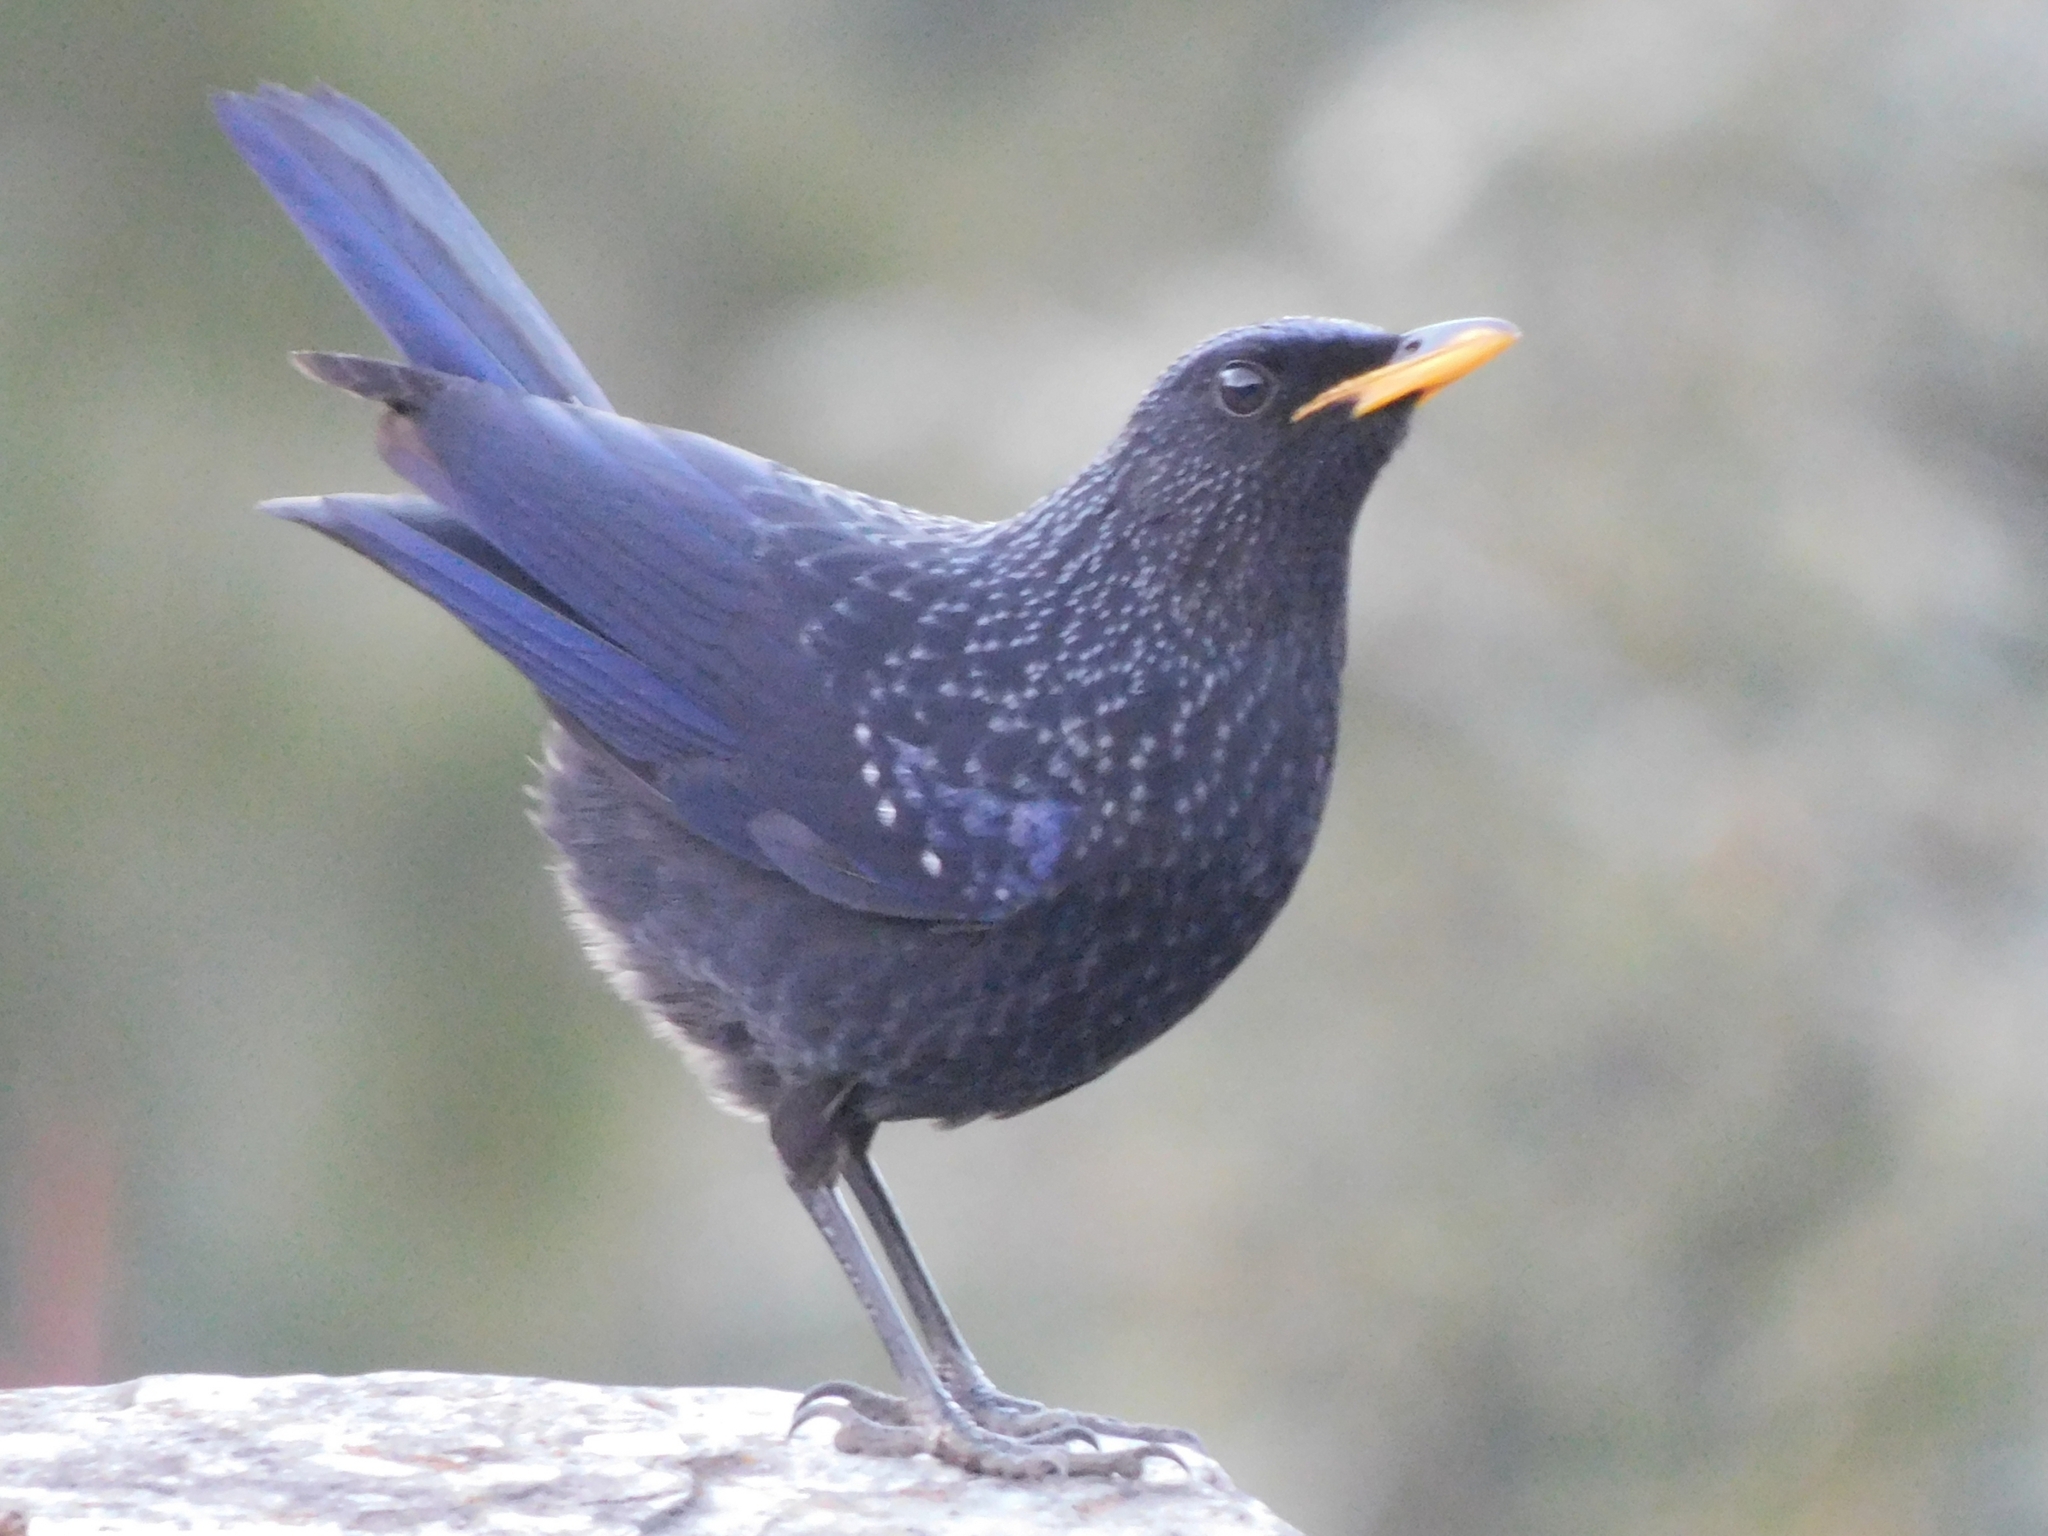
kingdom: Animalia
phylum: Chordata
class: Aves
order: Passeriformes
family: Muscicapidae
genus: Myophonus
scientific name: Myophonus caeruleus
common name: Blue whistling-thrush
